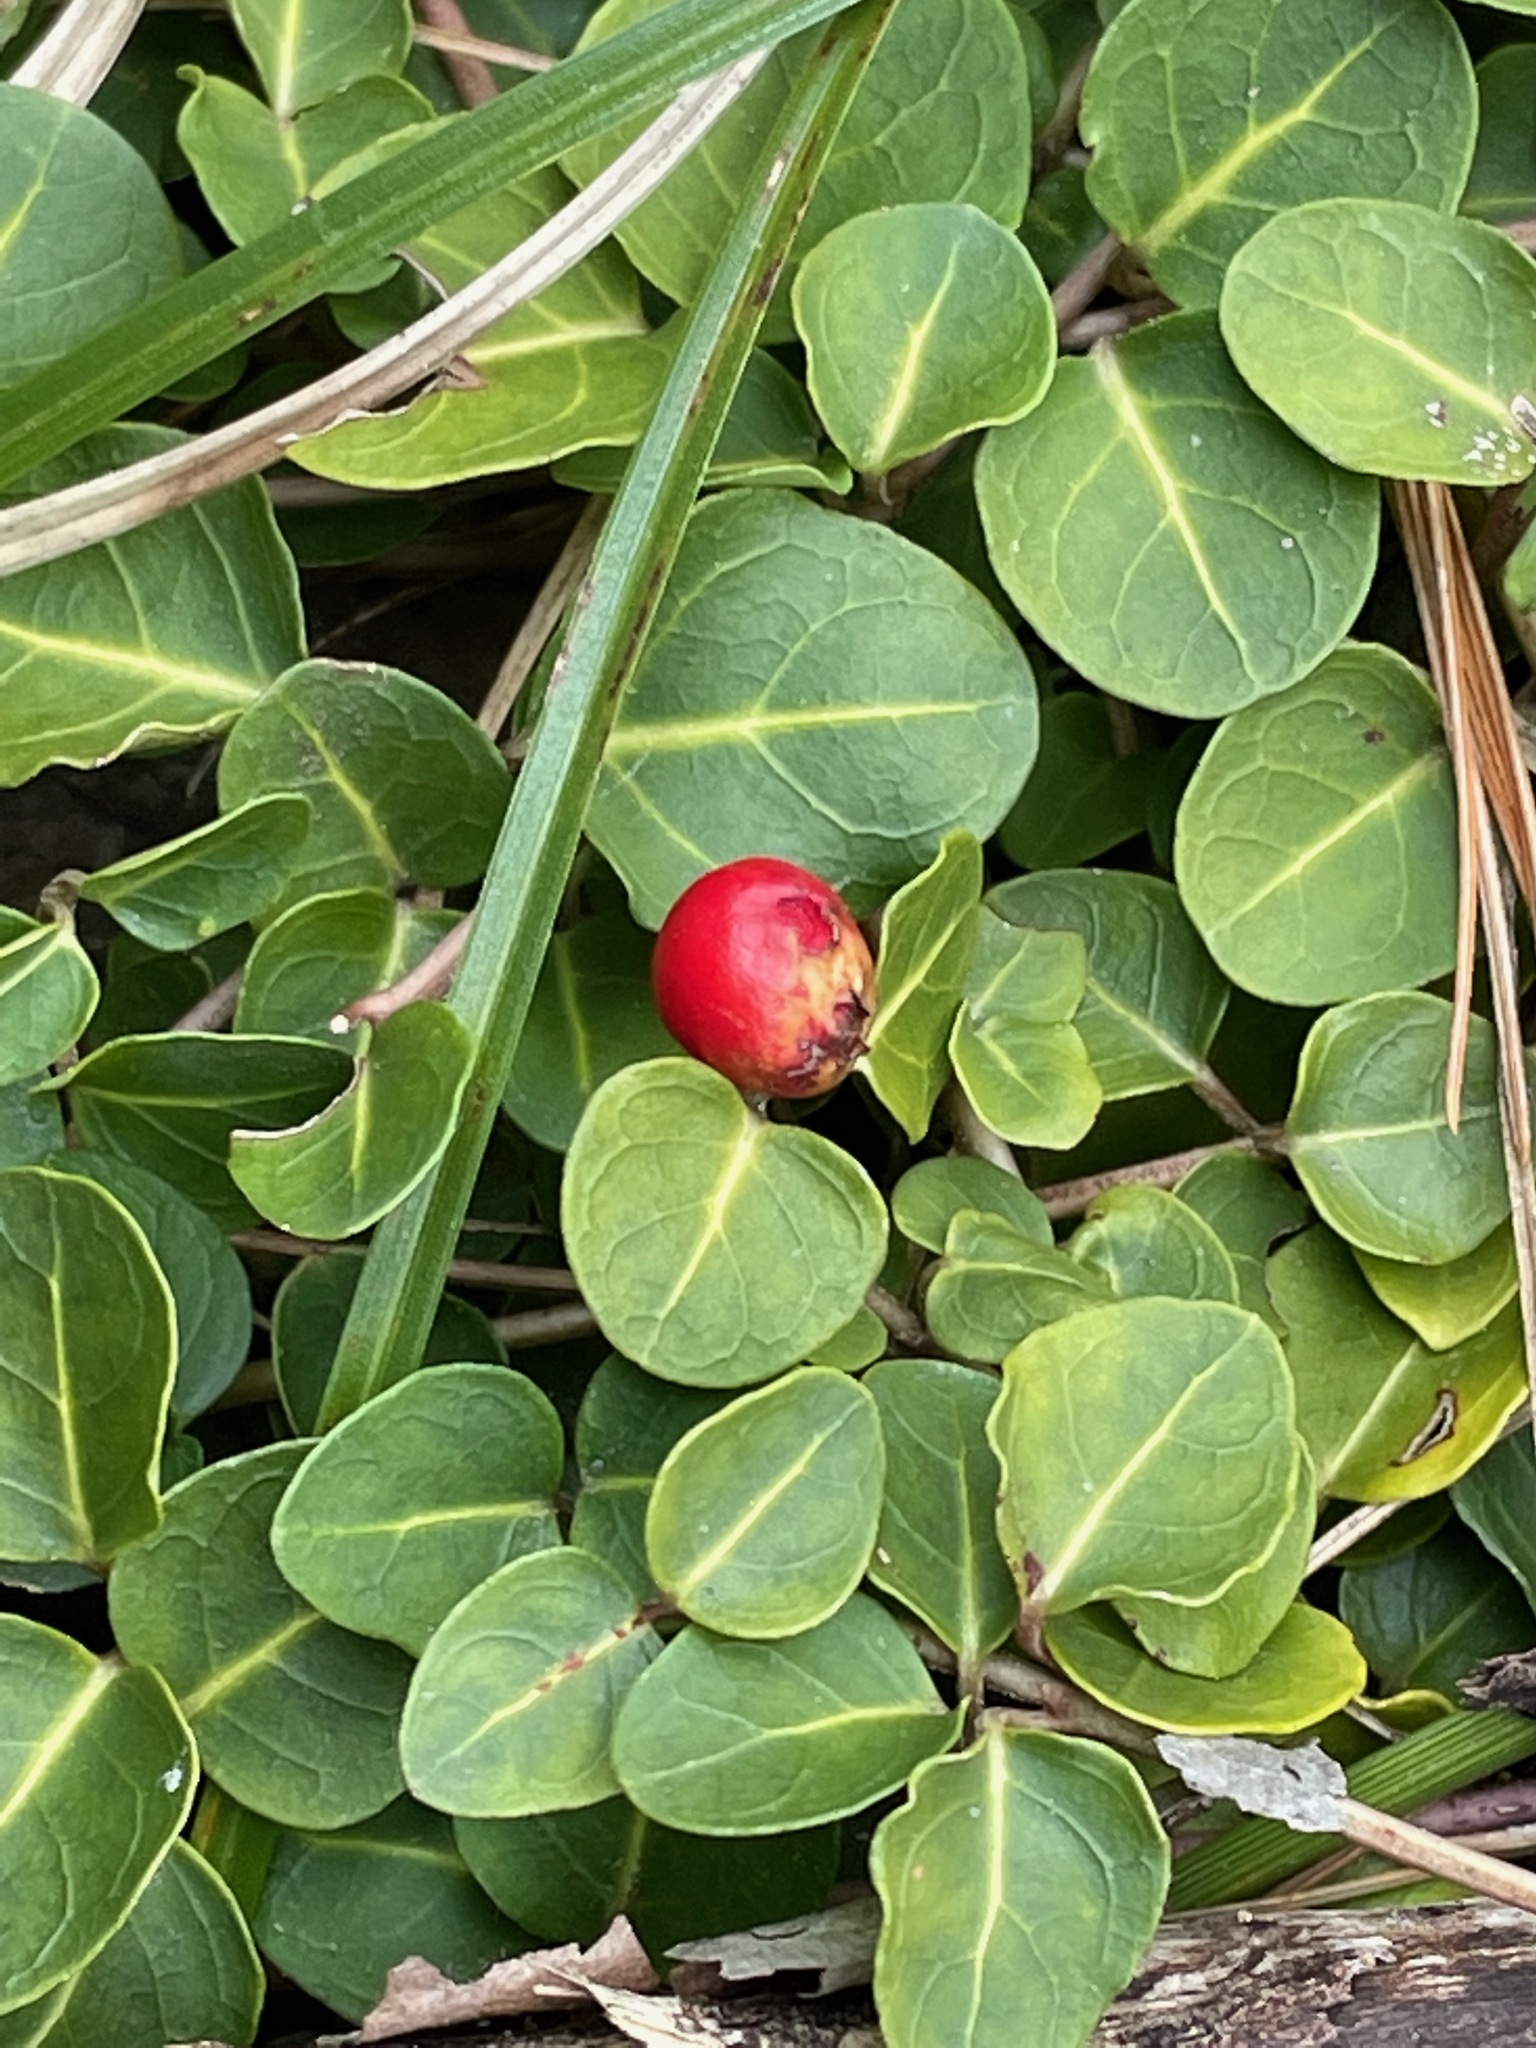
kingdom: Plantae
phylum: Tracheophyta
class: Magnoliopsida
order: Gentianales
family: Rubiaceae
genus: Mitchella
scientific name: Mitchella repens
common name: Partridge-berry
